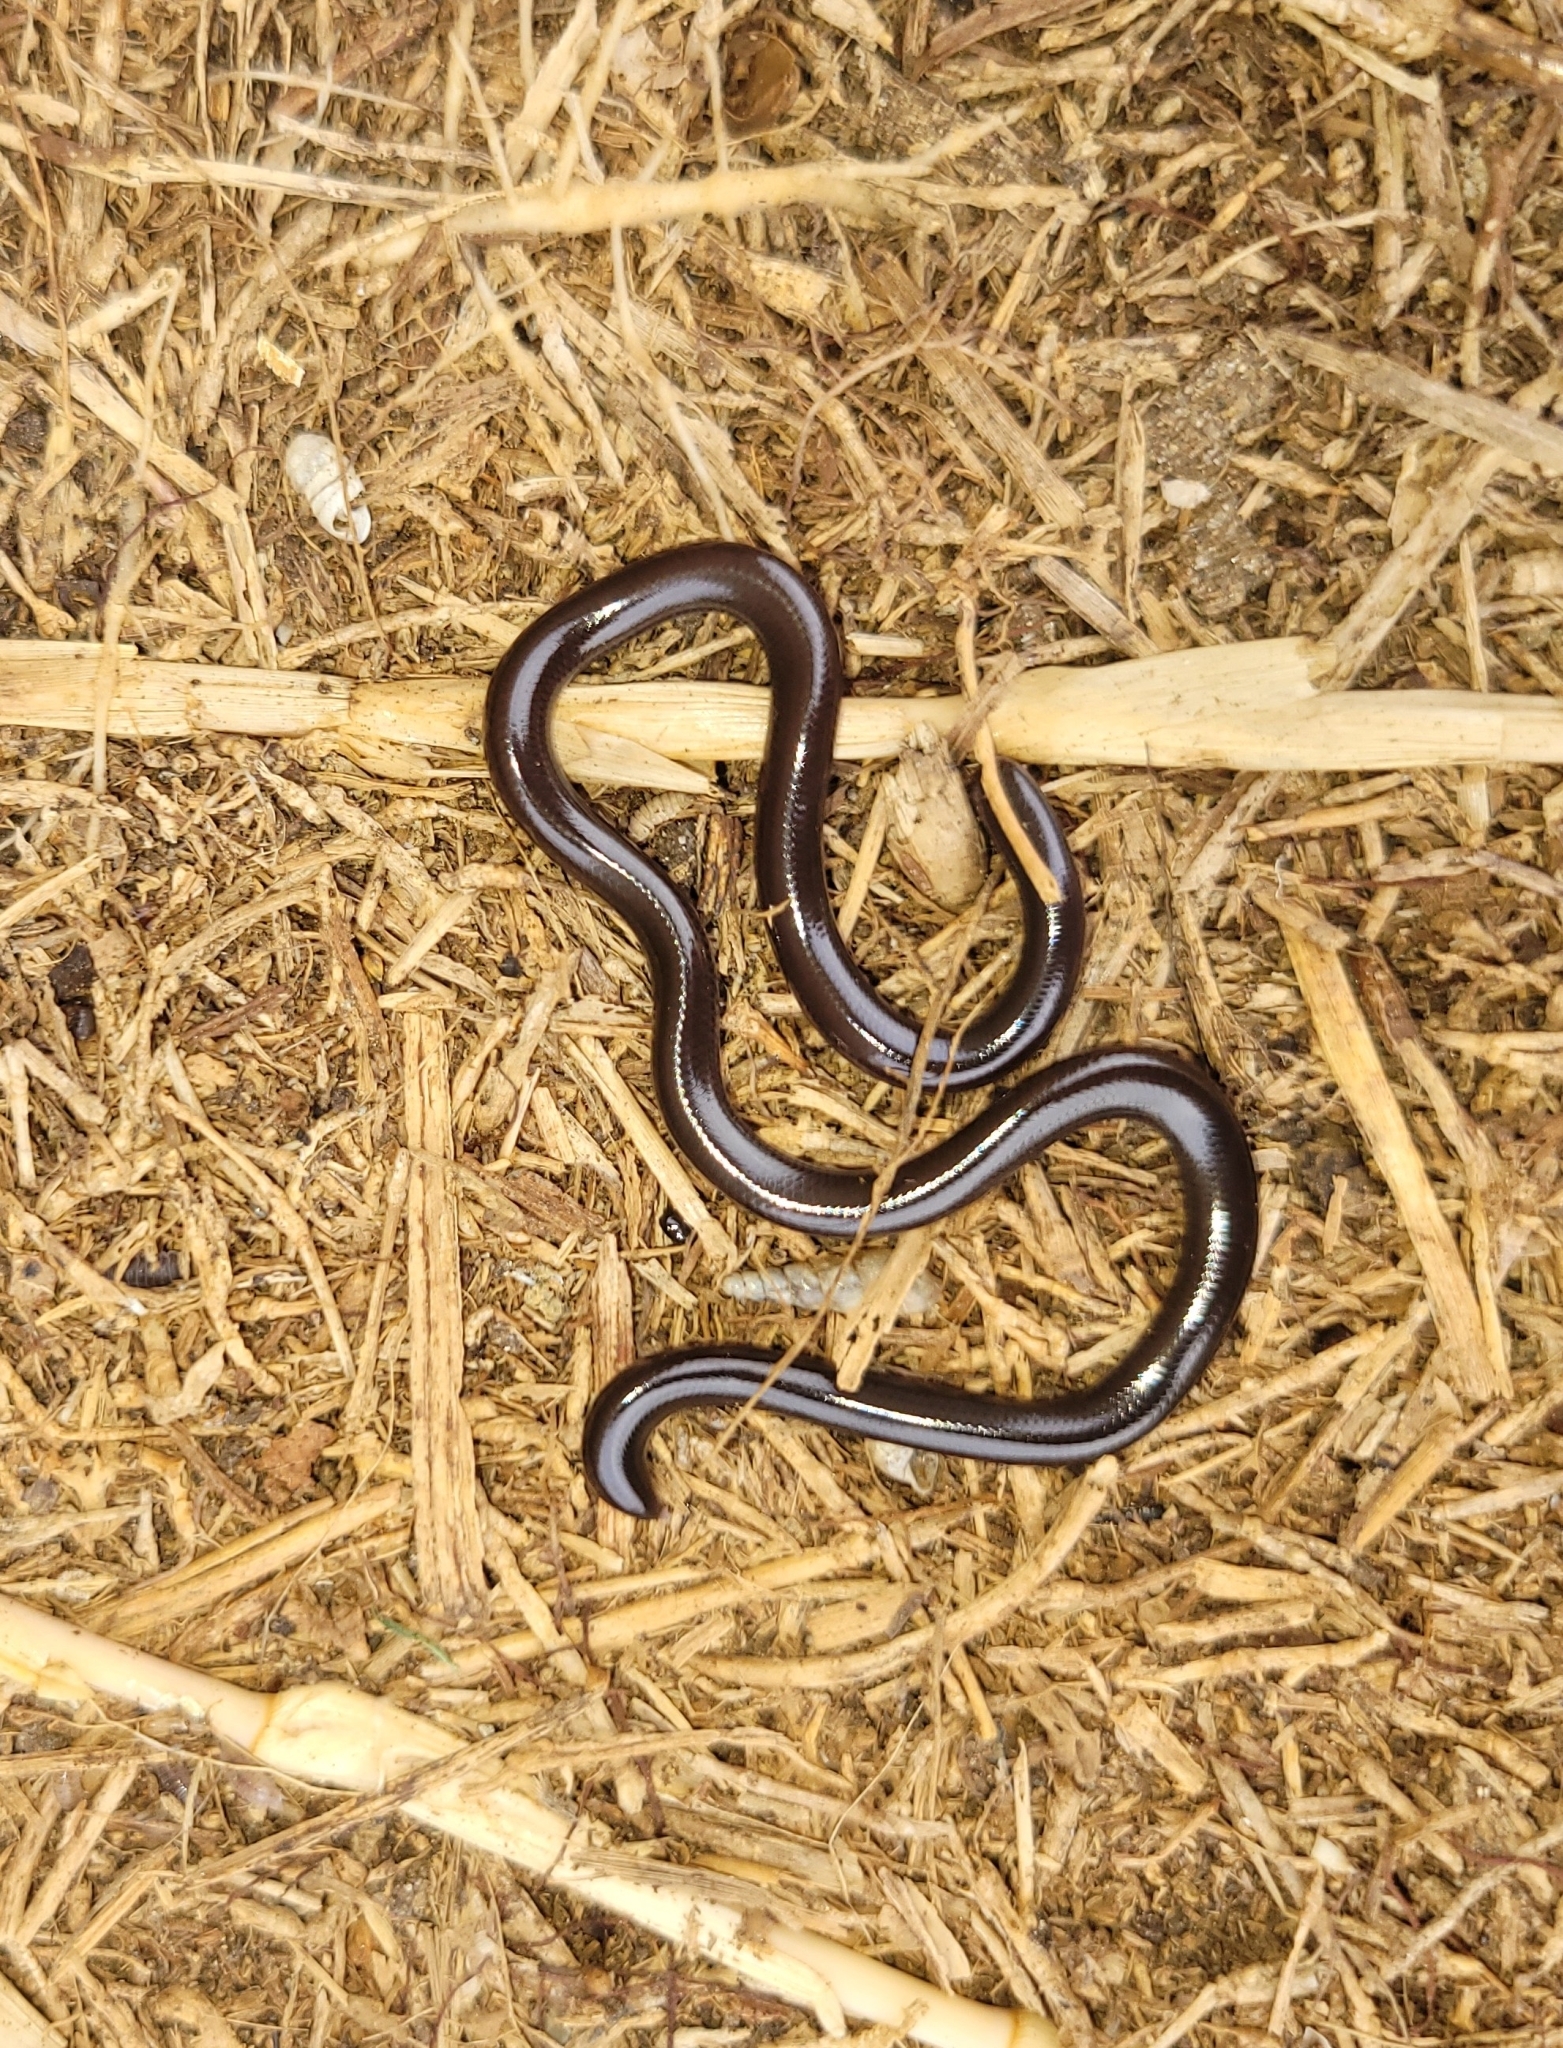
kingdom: Animalia
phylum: Chordata
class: Squamata
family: Typhlopidae
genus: Indotyphlops
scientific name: Indotyphlops braminus
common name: Brahminy blindsnake
